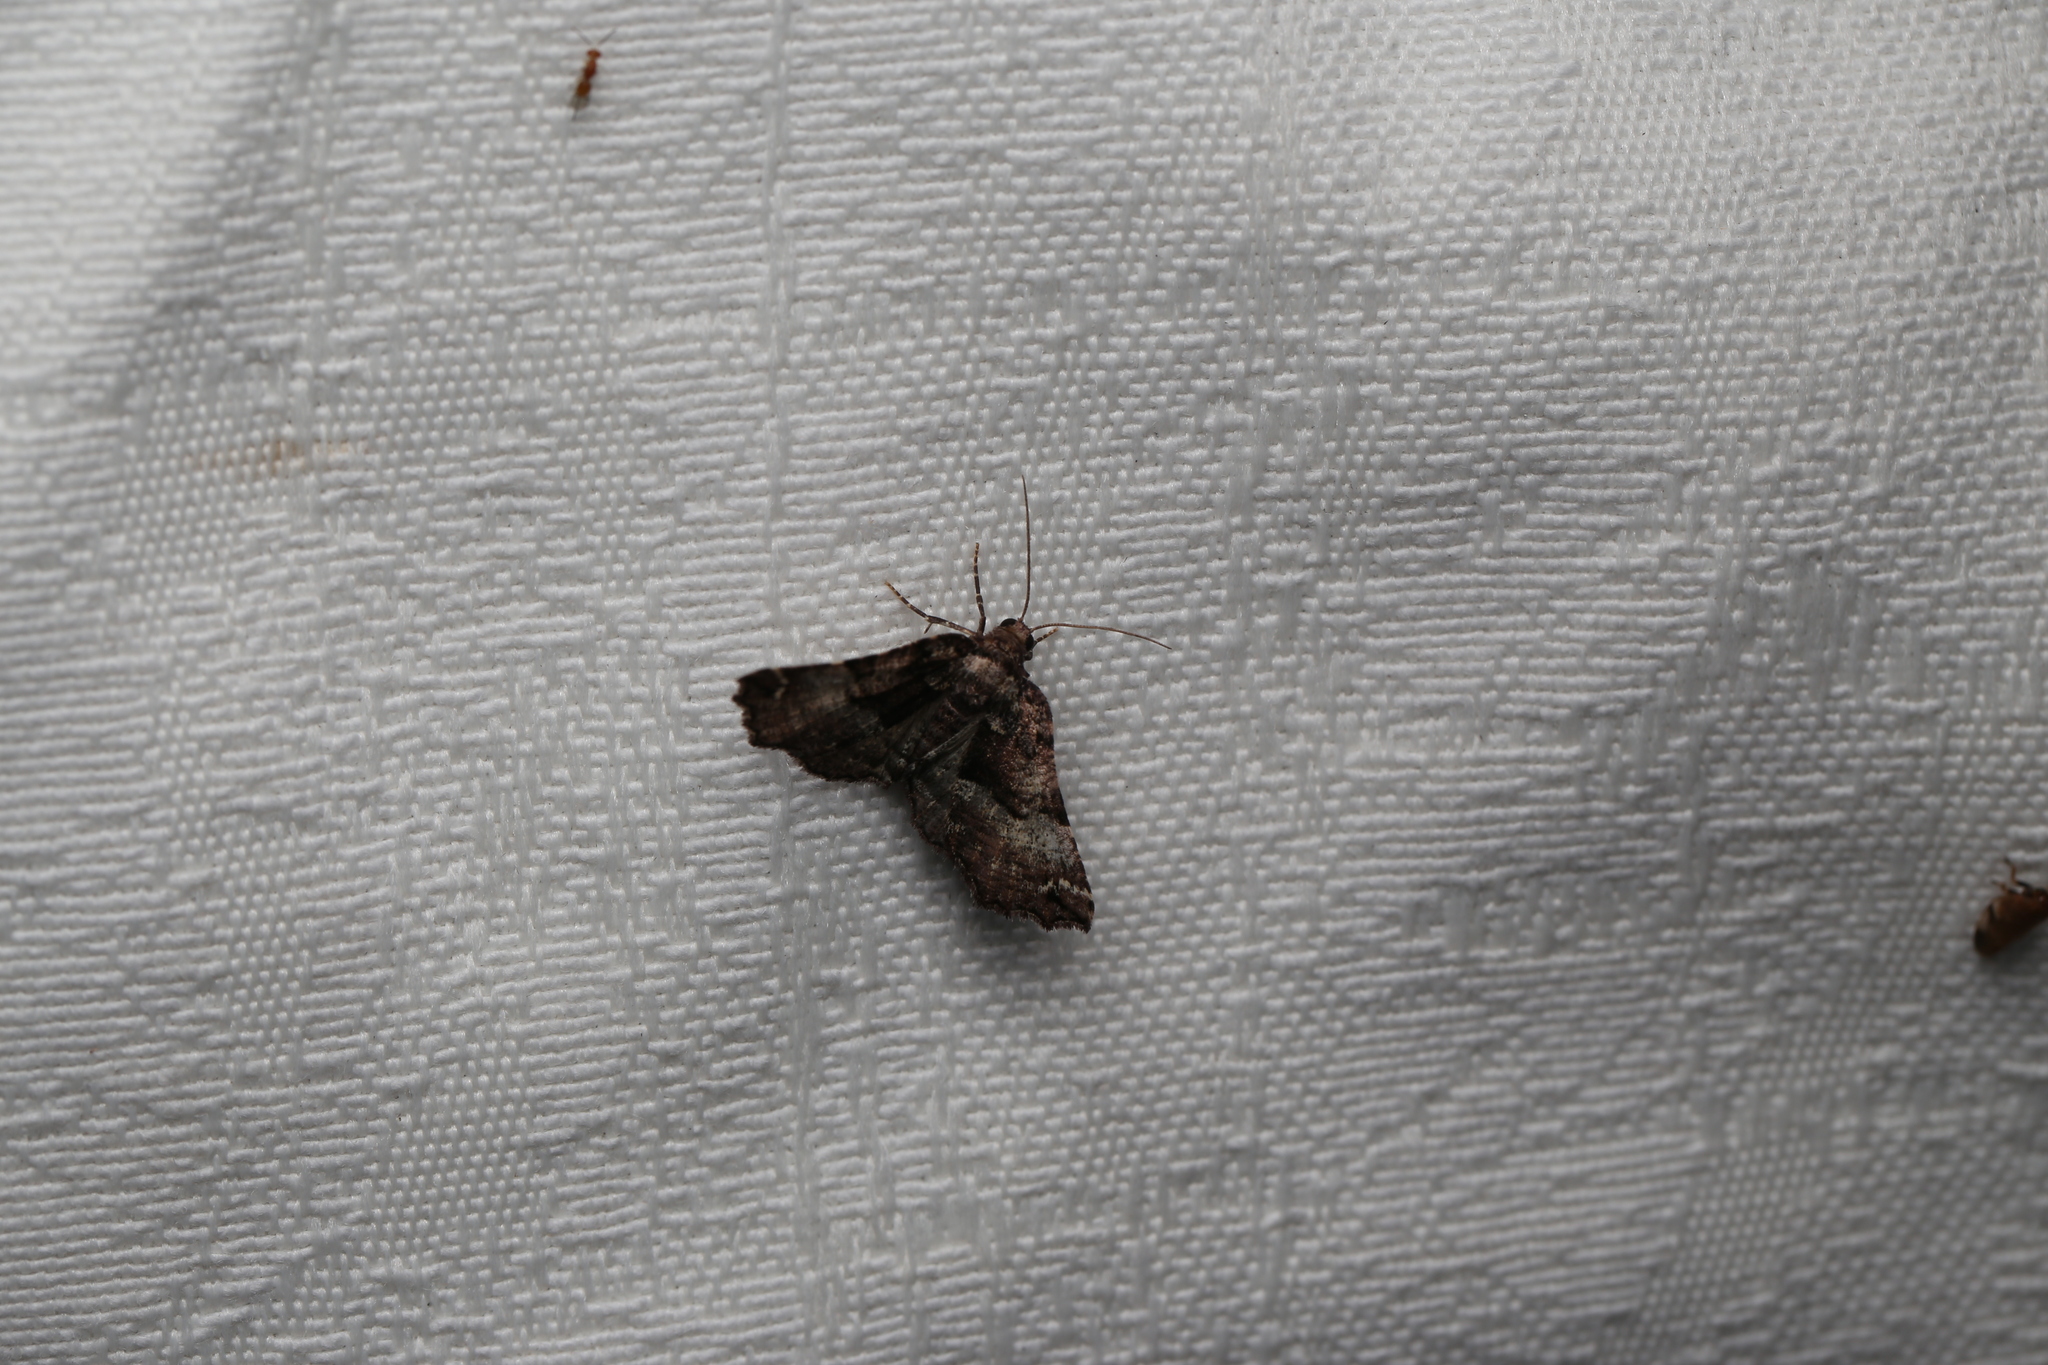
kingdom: Animalia
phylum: Arthropoda
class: Insecta
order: Lepidoptera
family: Geometridae
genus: Campaea
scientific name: Campaea Metrocampa celaenephes
